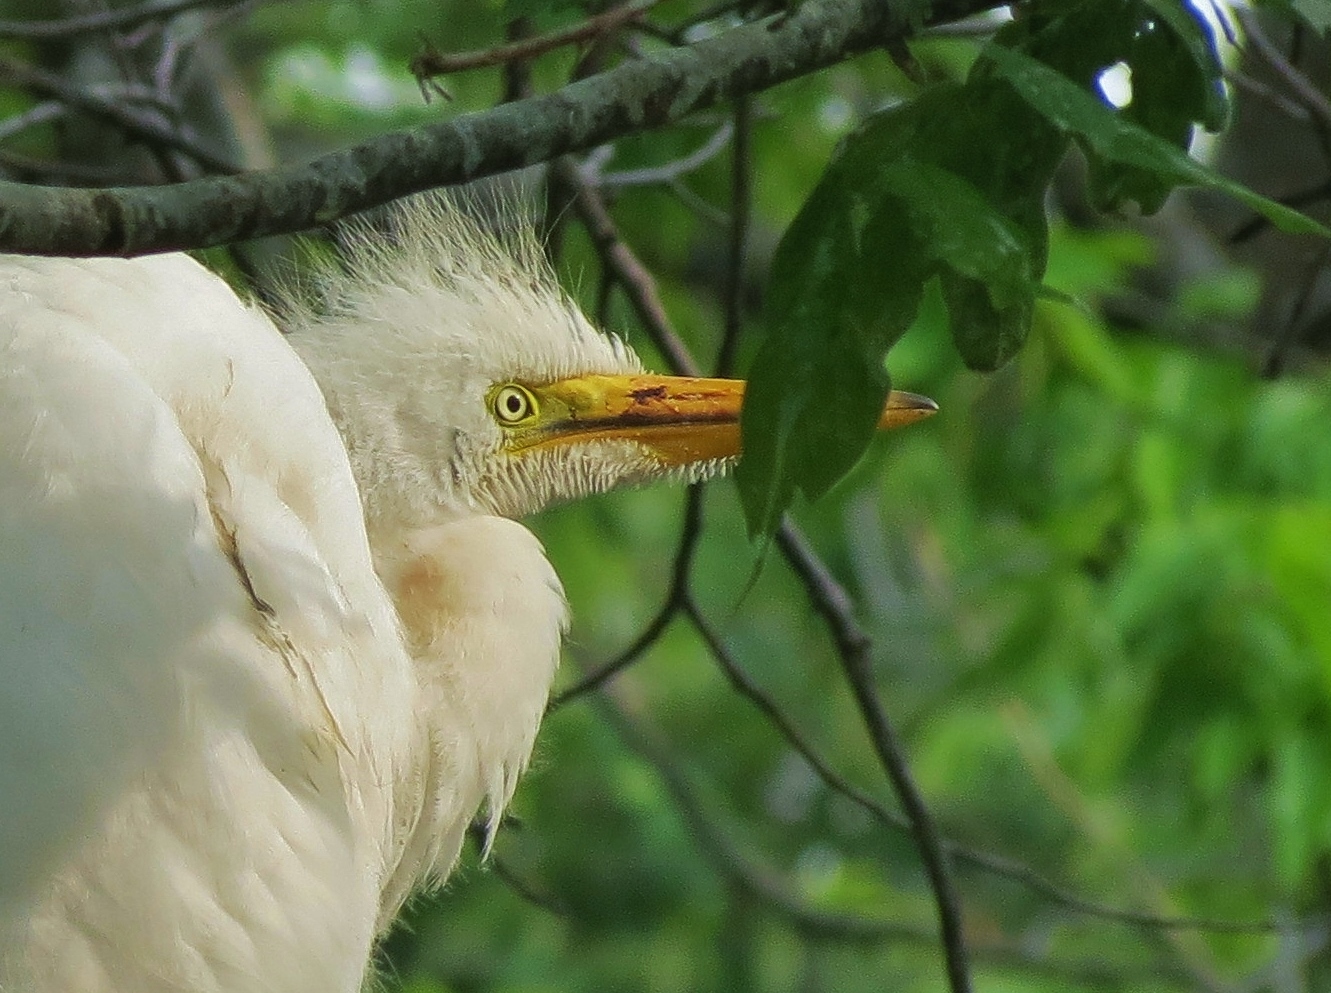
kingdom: Animalia
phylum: Chordata
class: Aves
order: Pelecaniformes
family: Ardeidae
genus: Ardea
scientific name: Ardea alba
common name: Great egret
